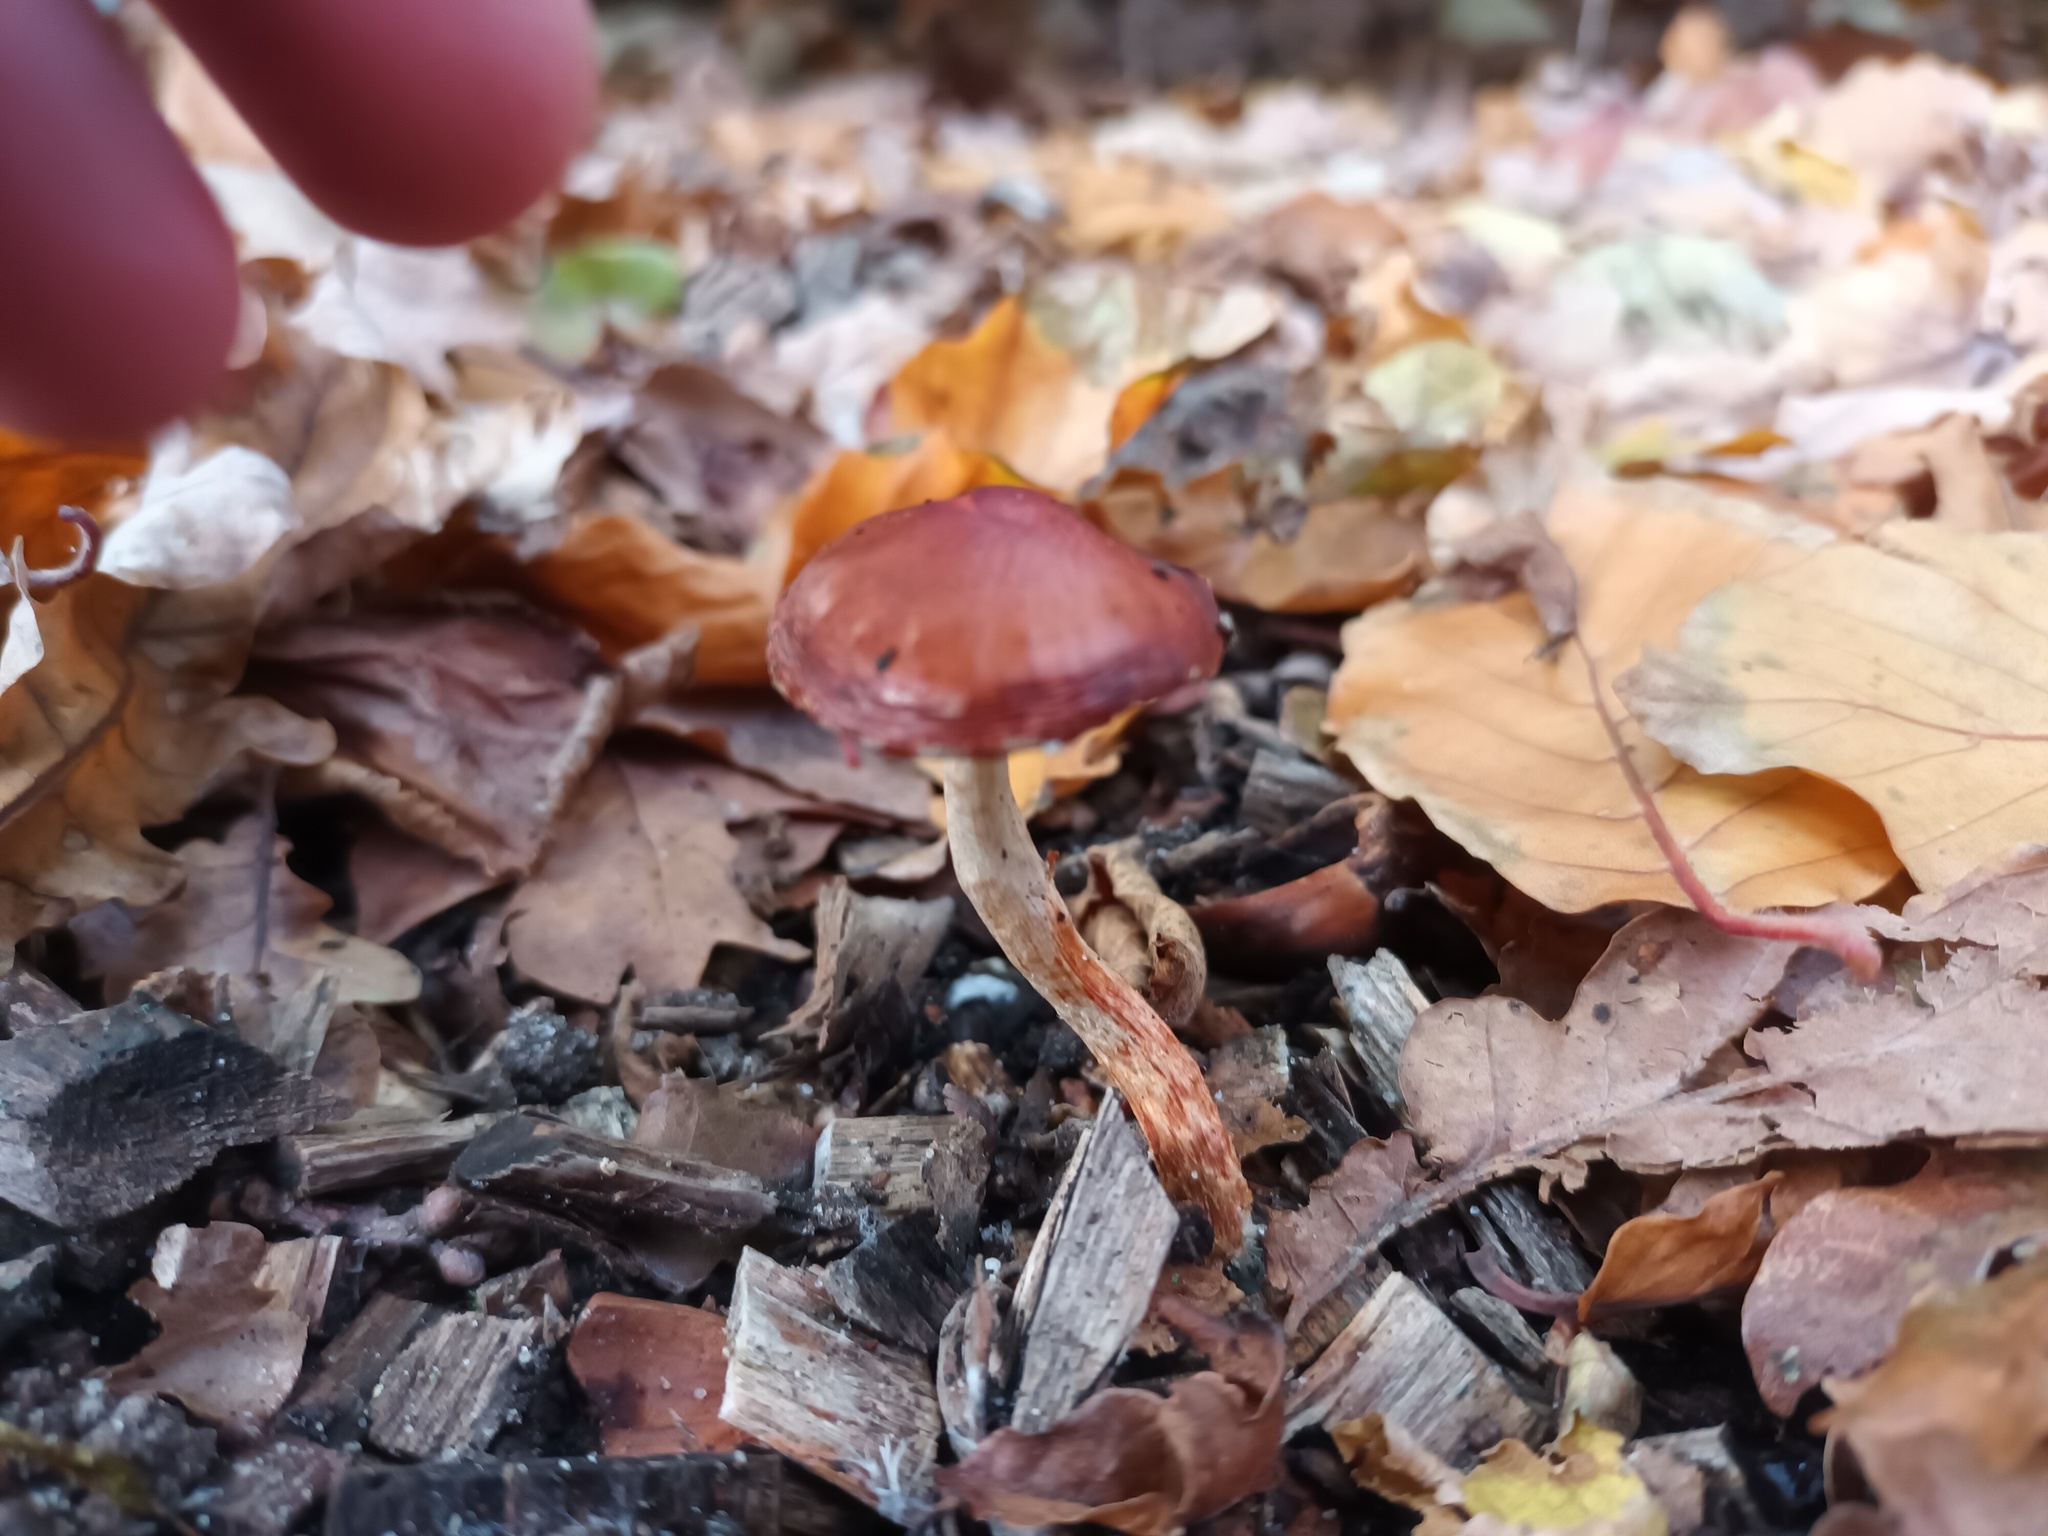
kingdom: Fungi
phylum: Basidiomycota
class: Agaricomycetes
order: Agaricales
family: Strophariaceae
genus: Leratiomyces
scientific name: Leratiomyces ceres
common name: Redlead roundhead
